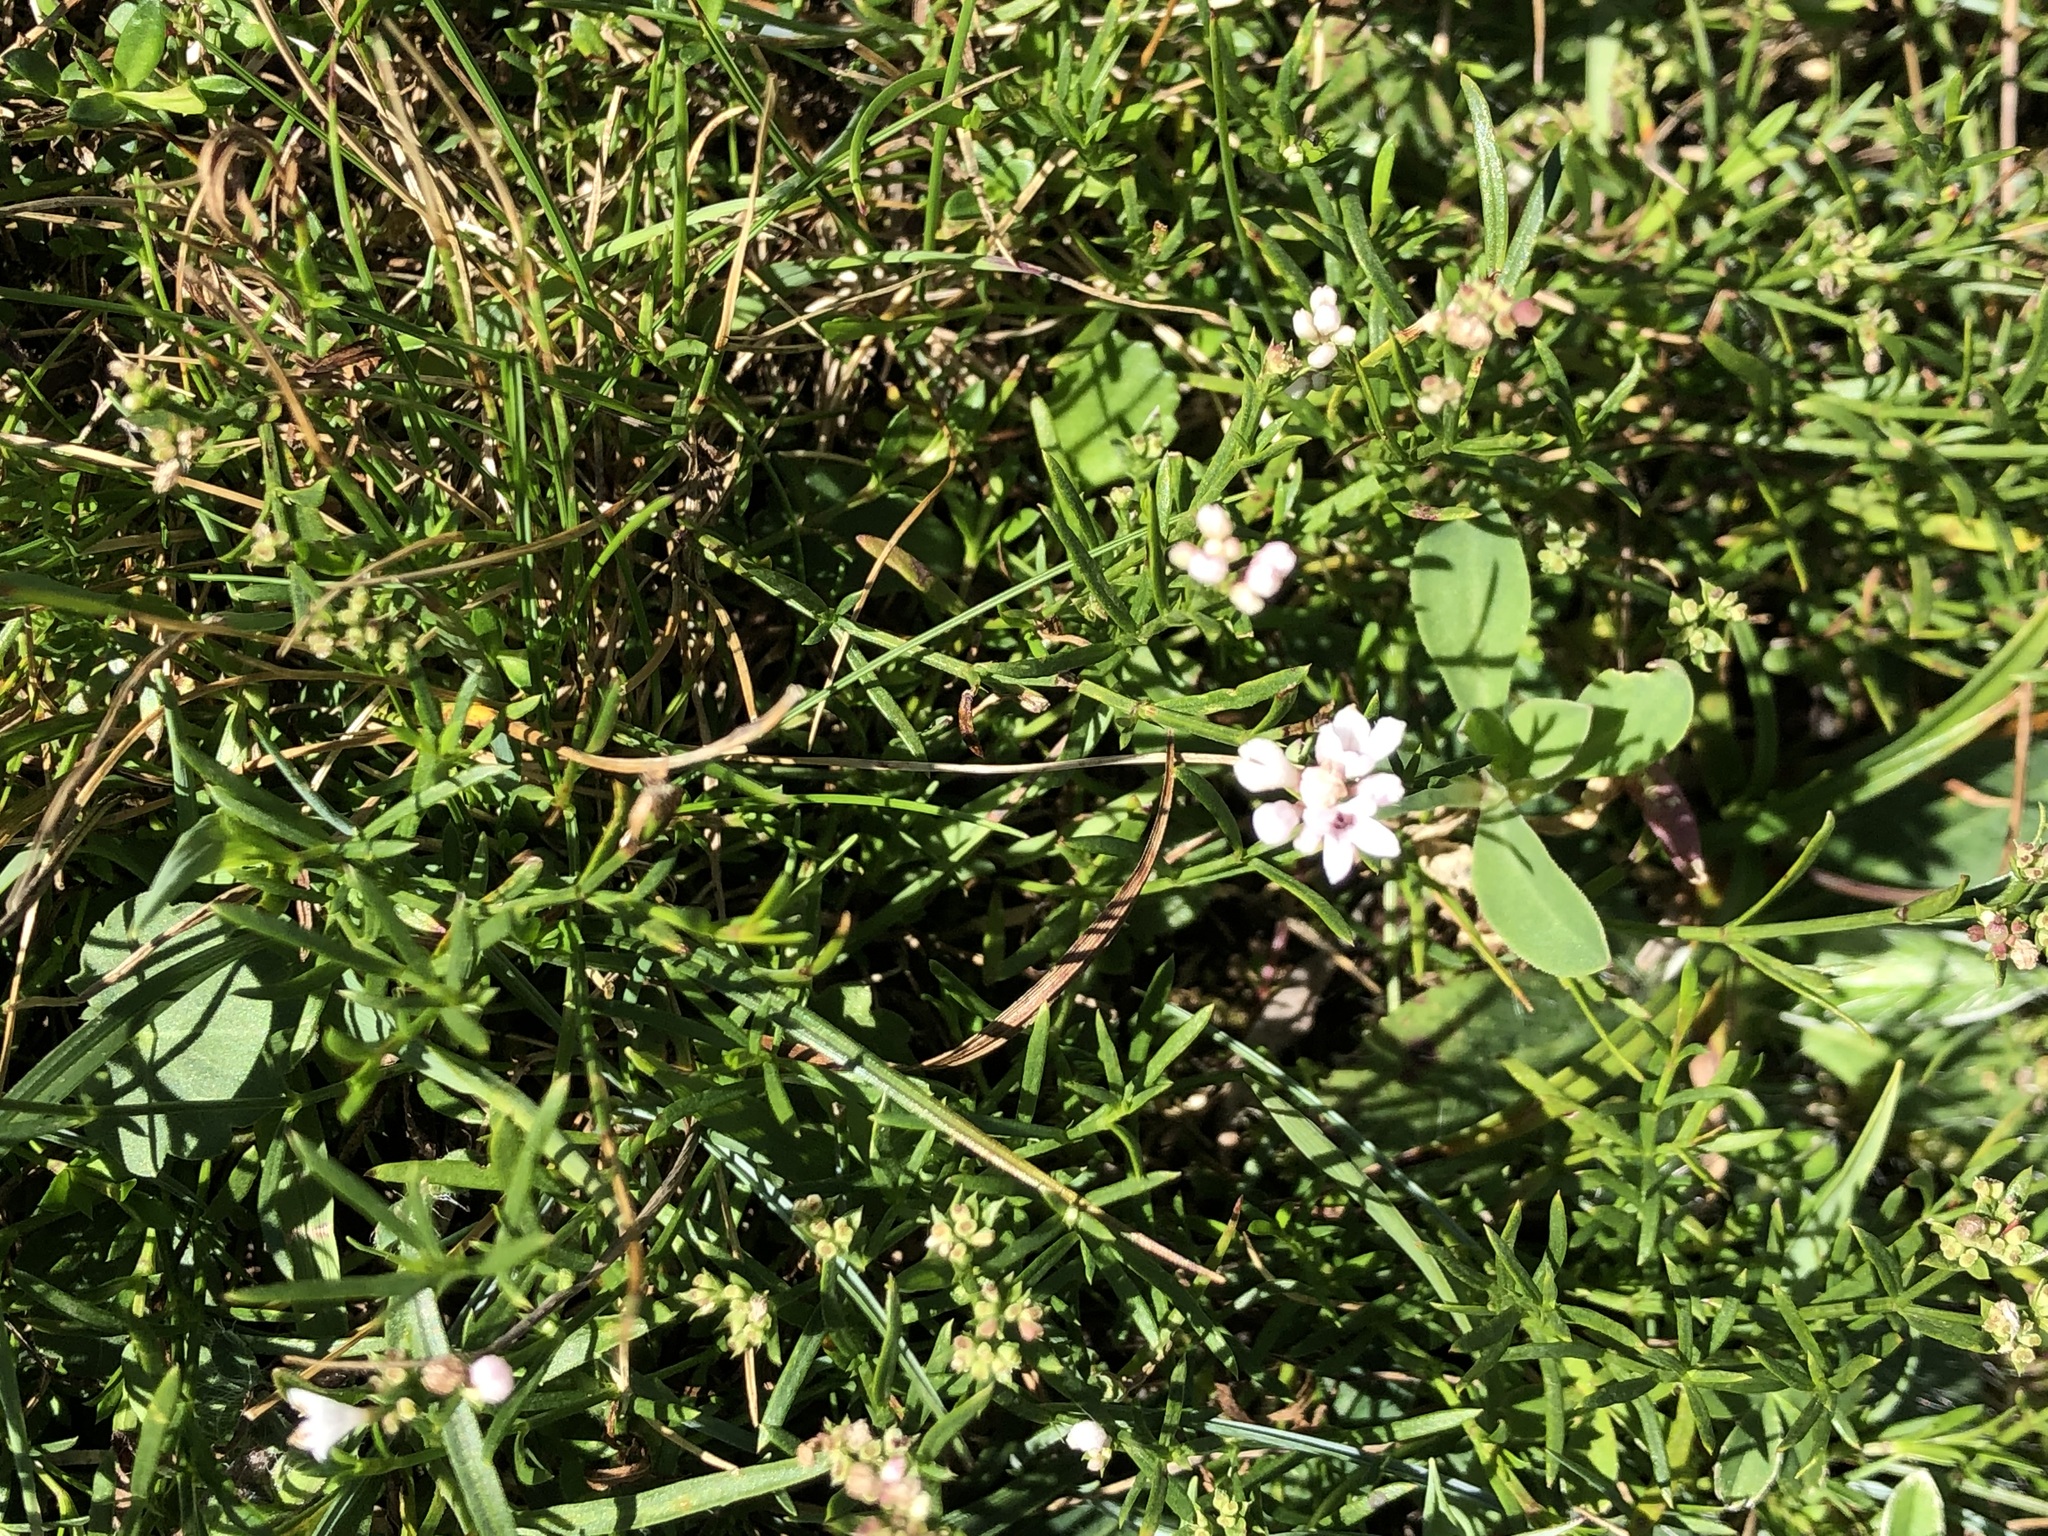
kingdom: Plantae
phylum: Tracheophyta
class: Magnoliopsida
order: Gentianales
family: Rubiaceae
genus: Cynanchica
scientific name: Cynanchica pyrenaica
